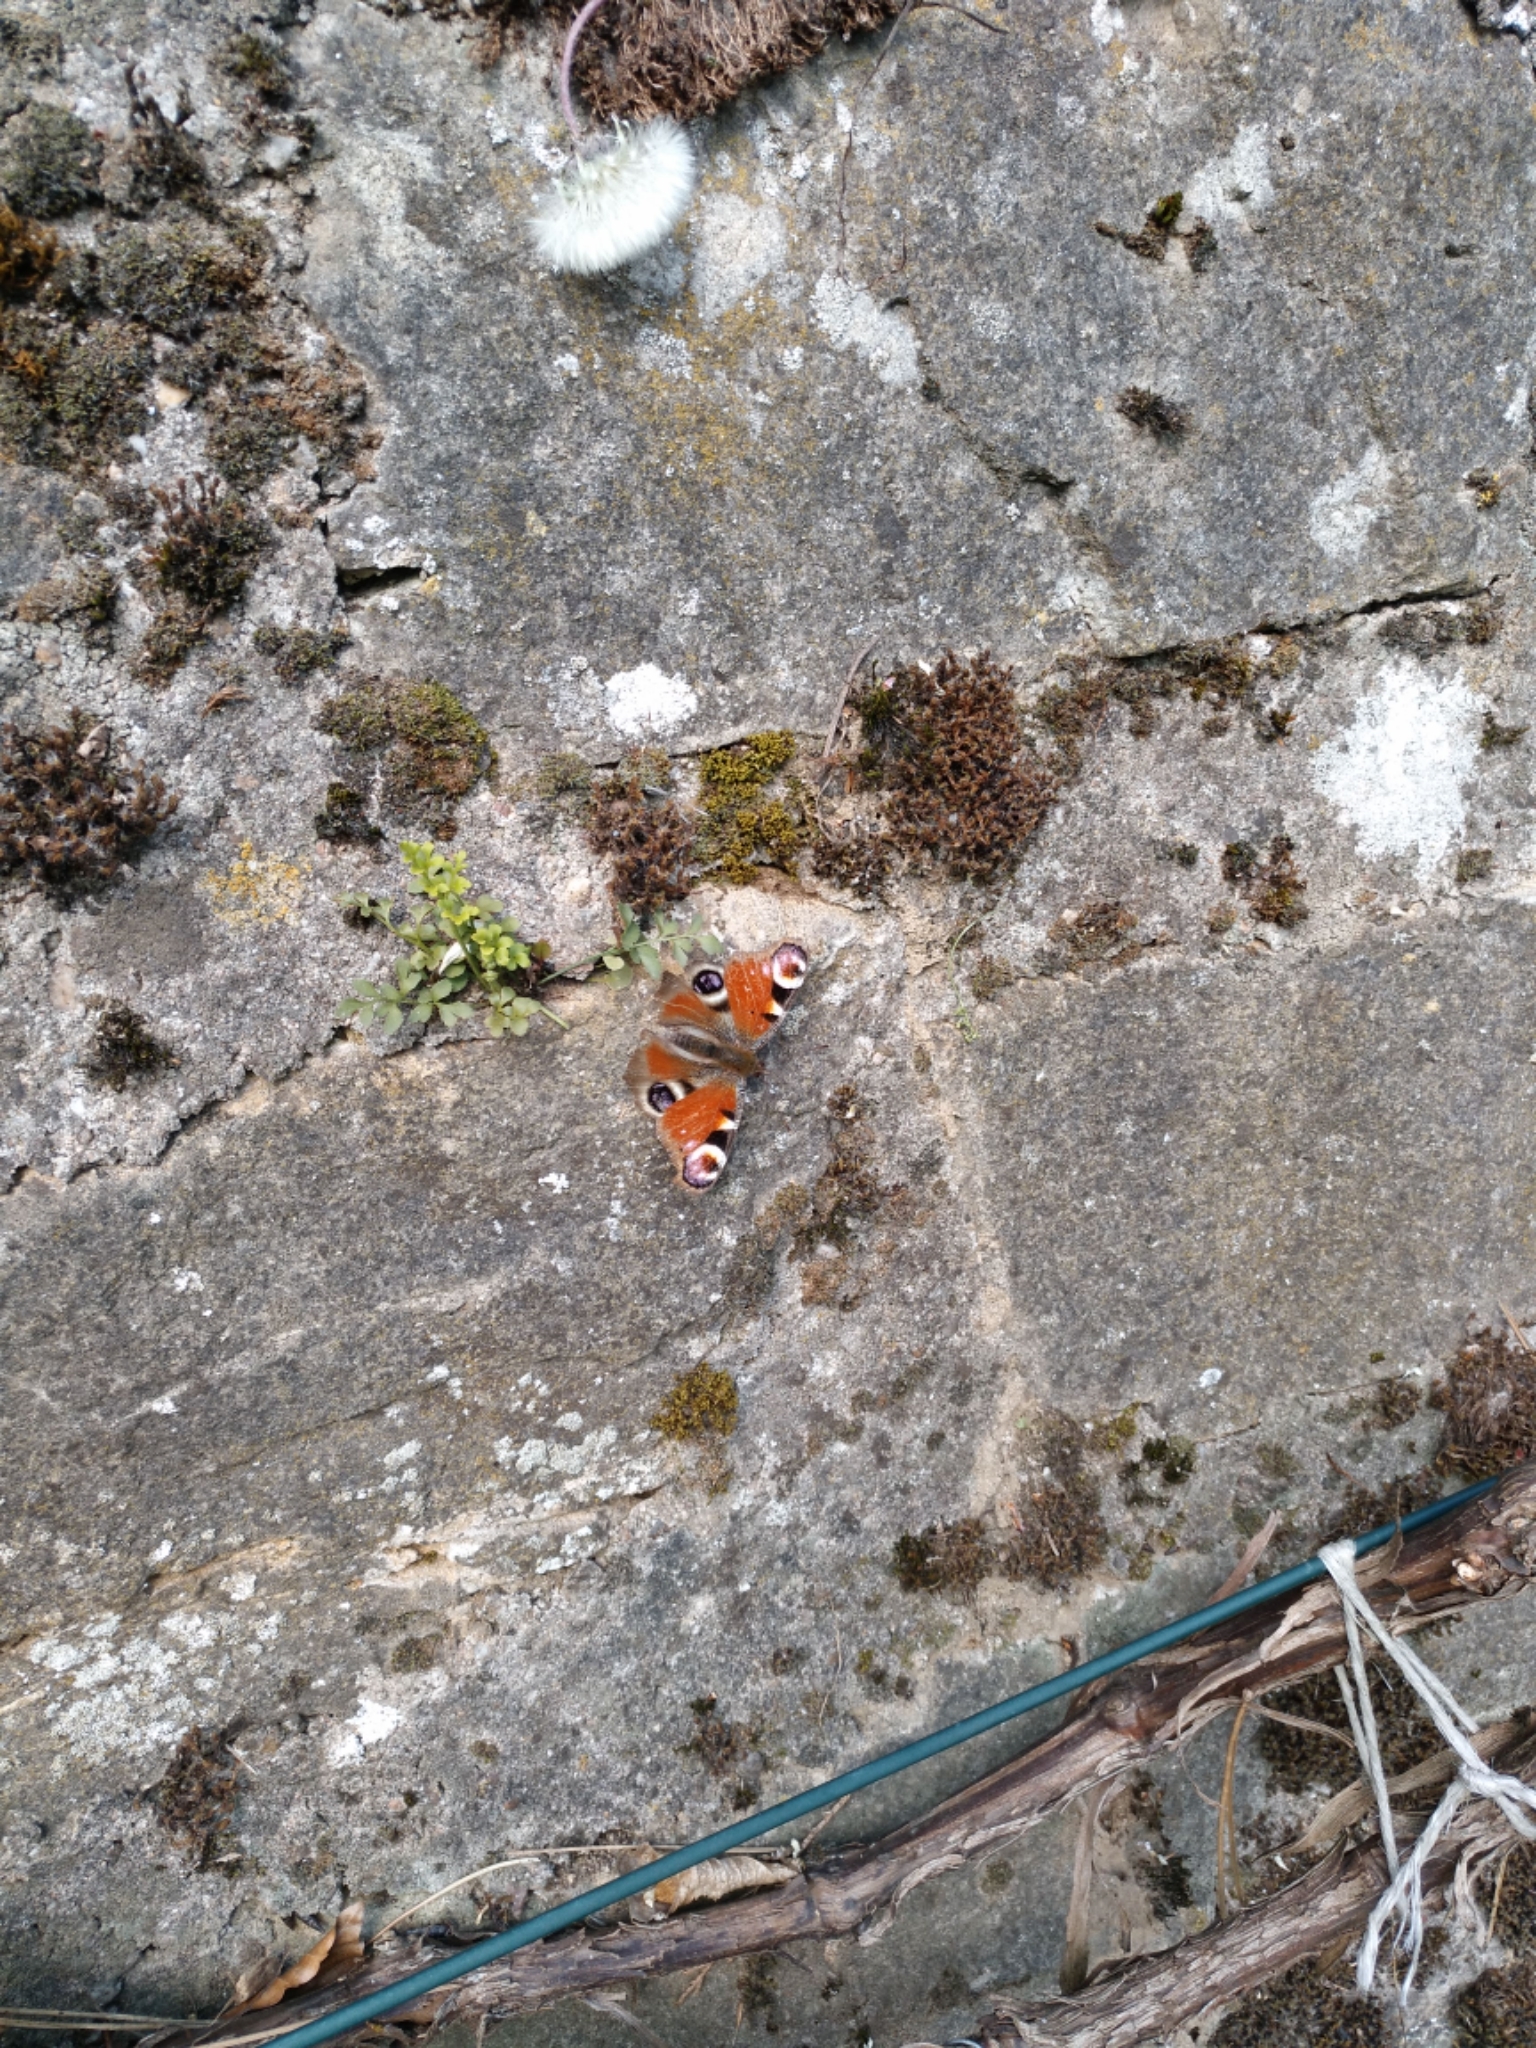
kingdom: Animalia
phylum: Arthropoda
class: Insecta
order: Lepidoptera
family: Nymphalidae
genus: Aglais
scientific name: Aglais io
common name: Peacock
